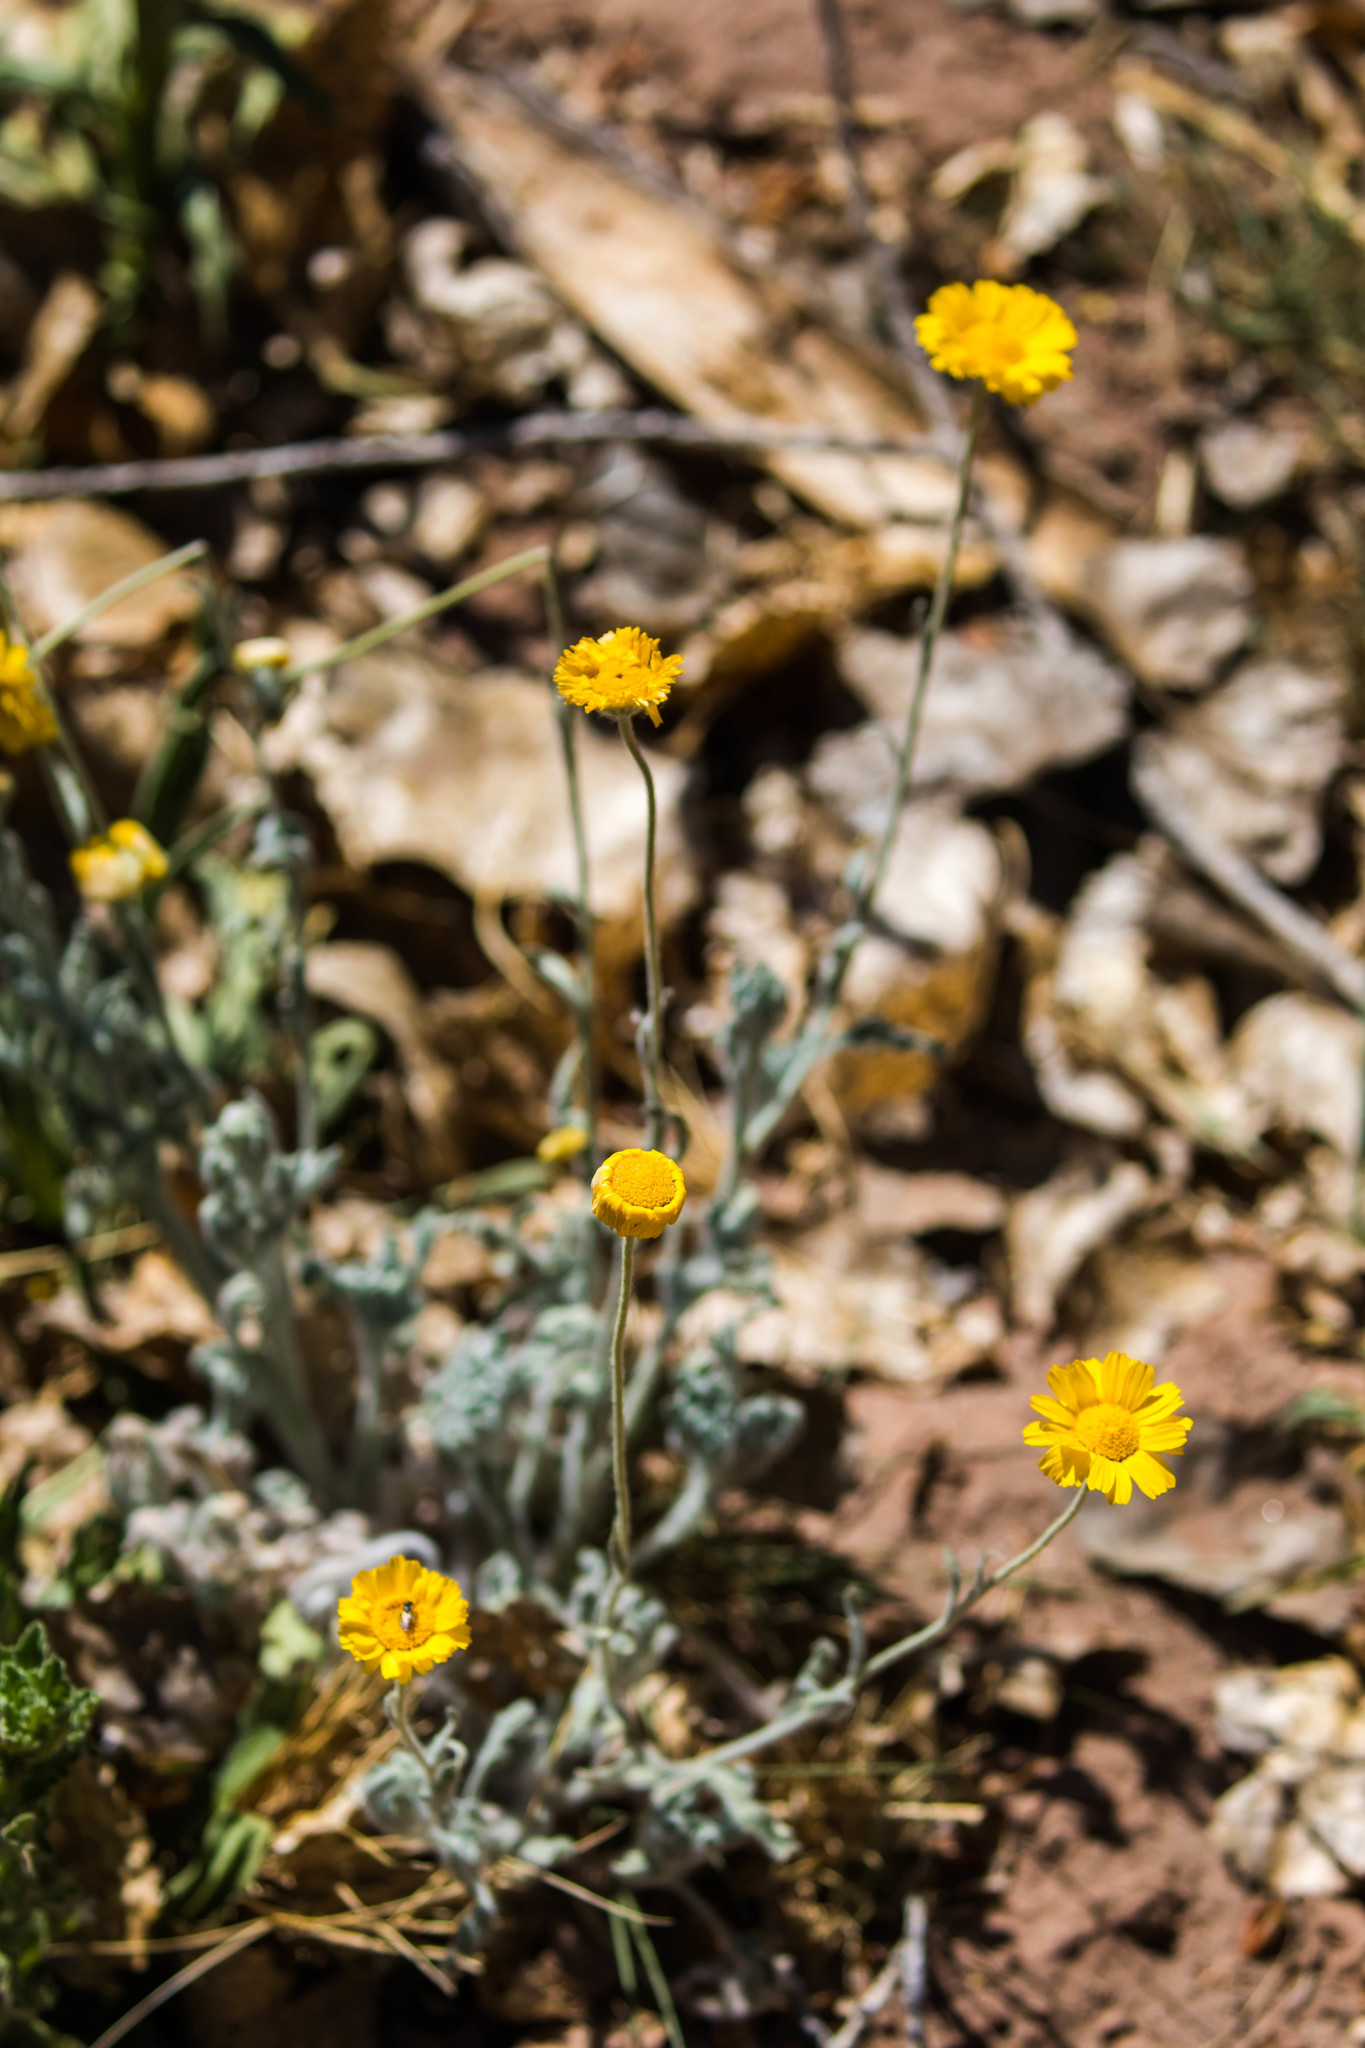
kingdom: Plantae
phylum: Tracheophyta
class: Magnoliopsida
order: Asterales
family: Asteraceae
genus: Baileya
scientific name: Baileya multiradiata
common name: Desert-marigold
